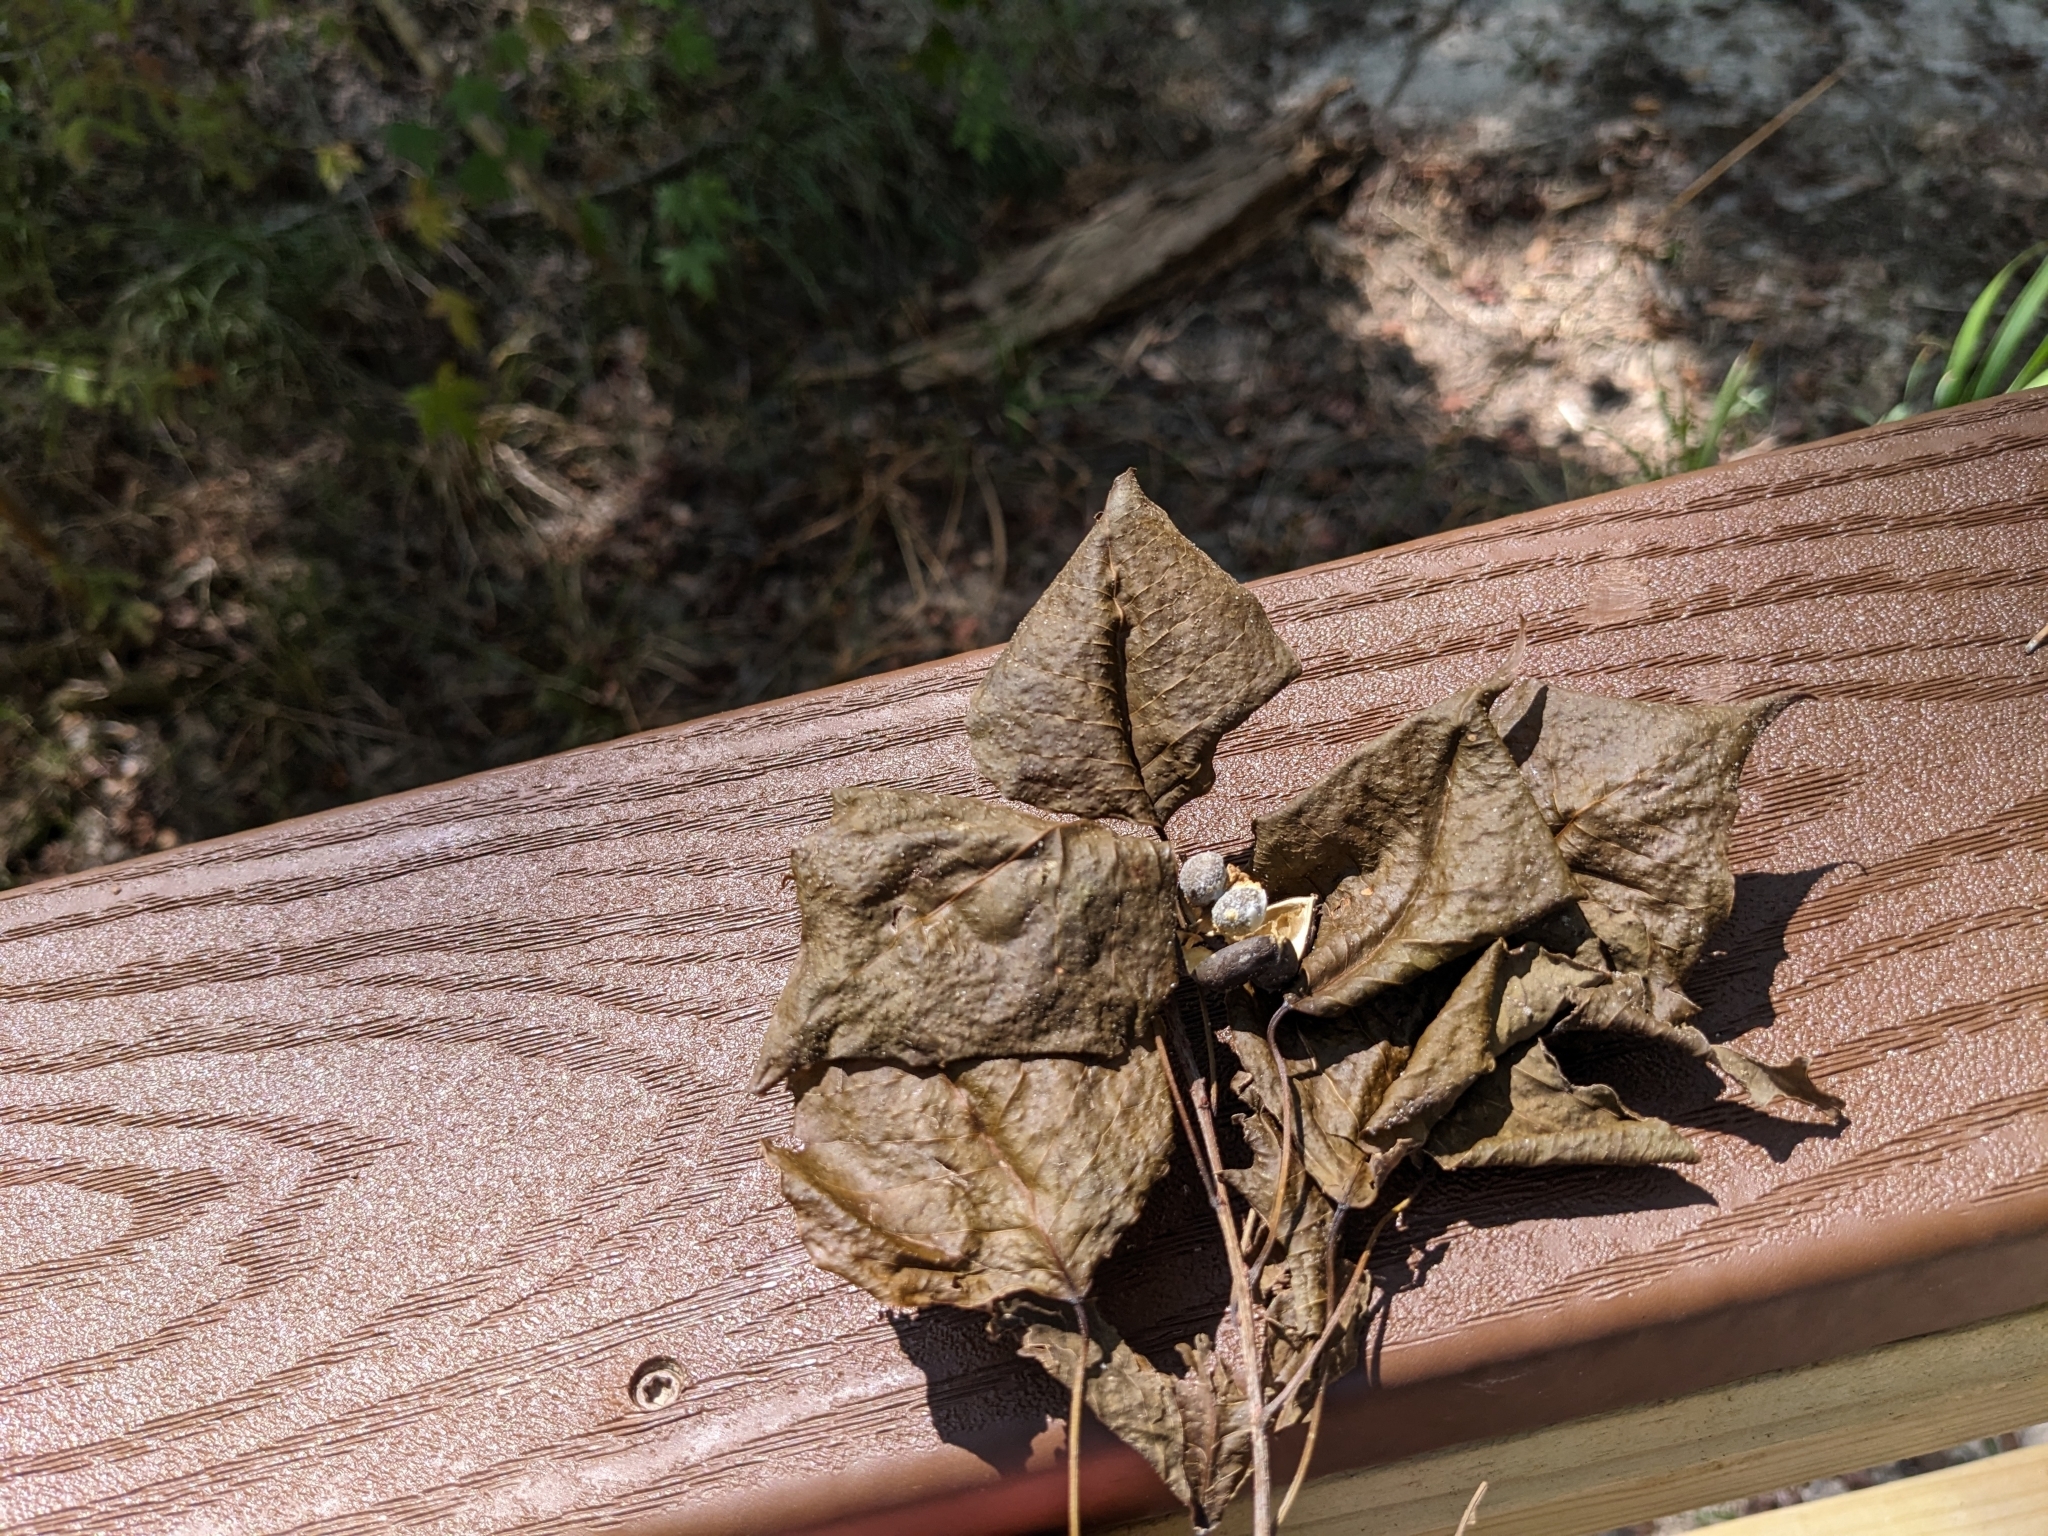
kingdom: Plantae
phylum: Tracheophyta
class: Magnoliopsida
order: Malpighiales
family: Euphorbiaceae
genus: Triadica
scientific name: Triadica sebifera
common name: Chinese tallow
